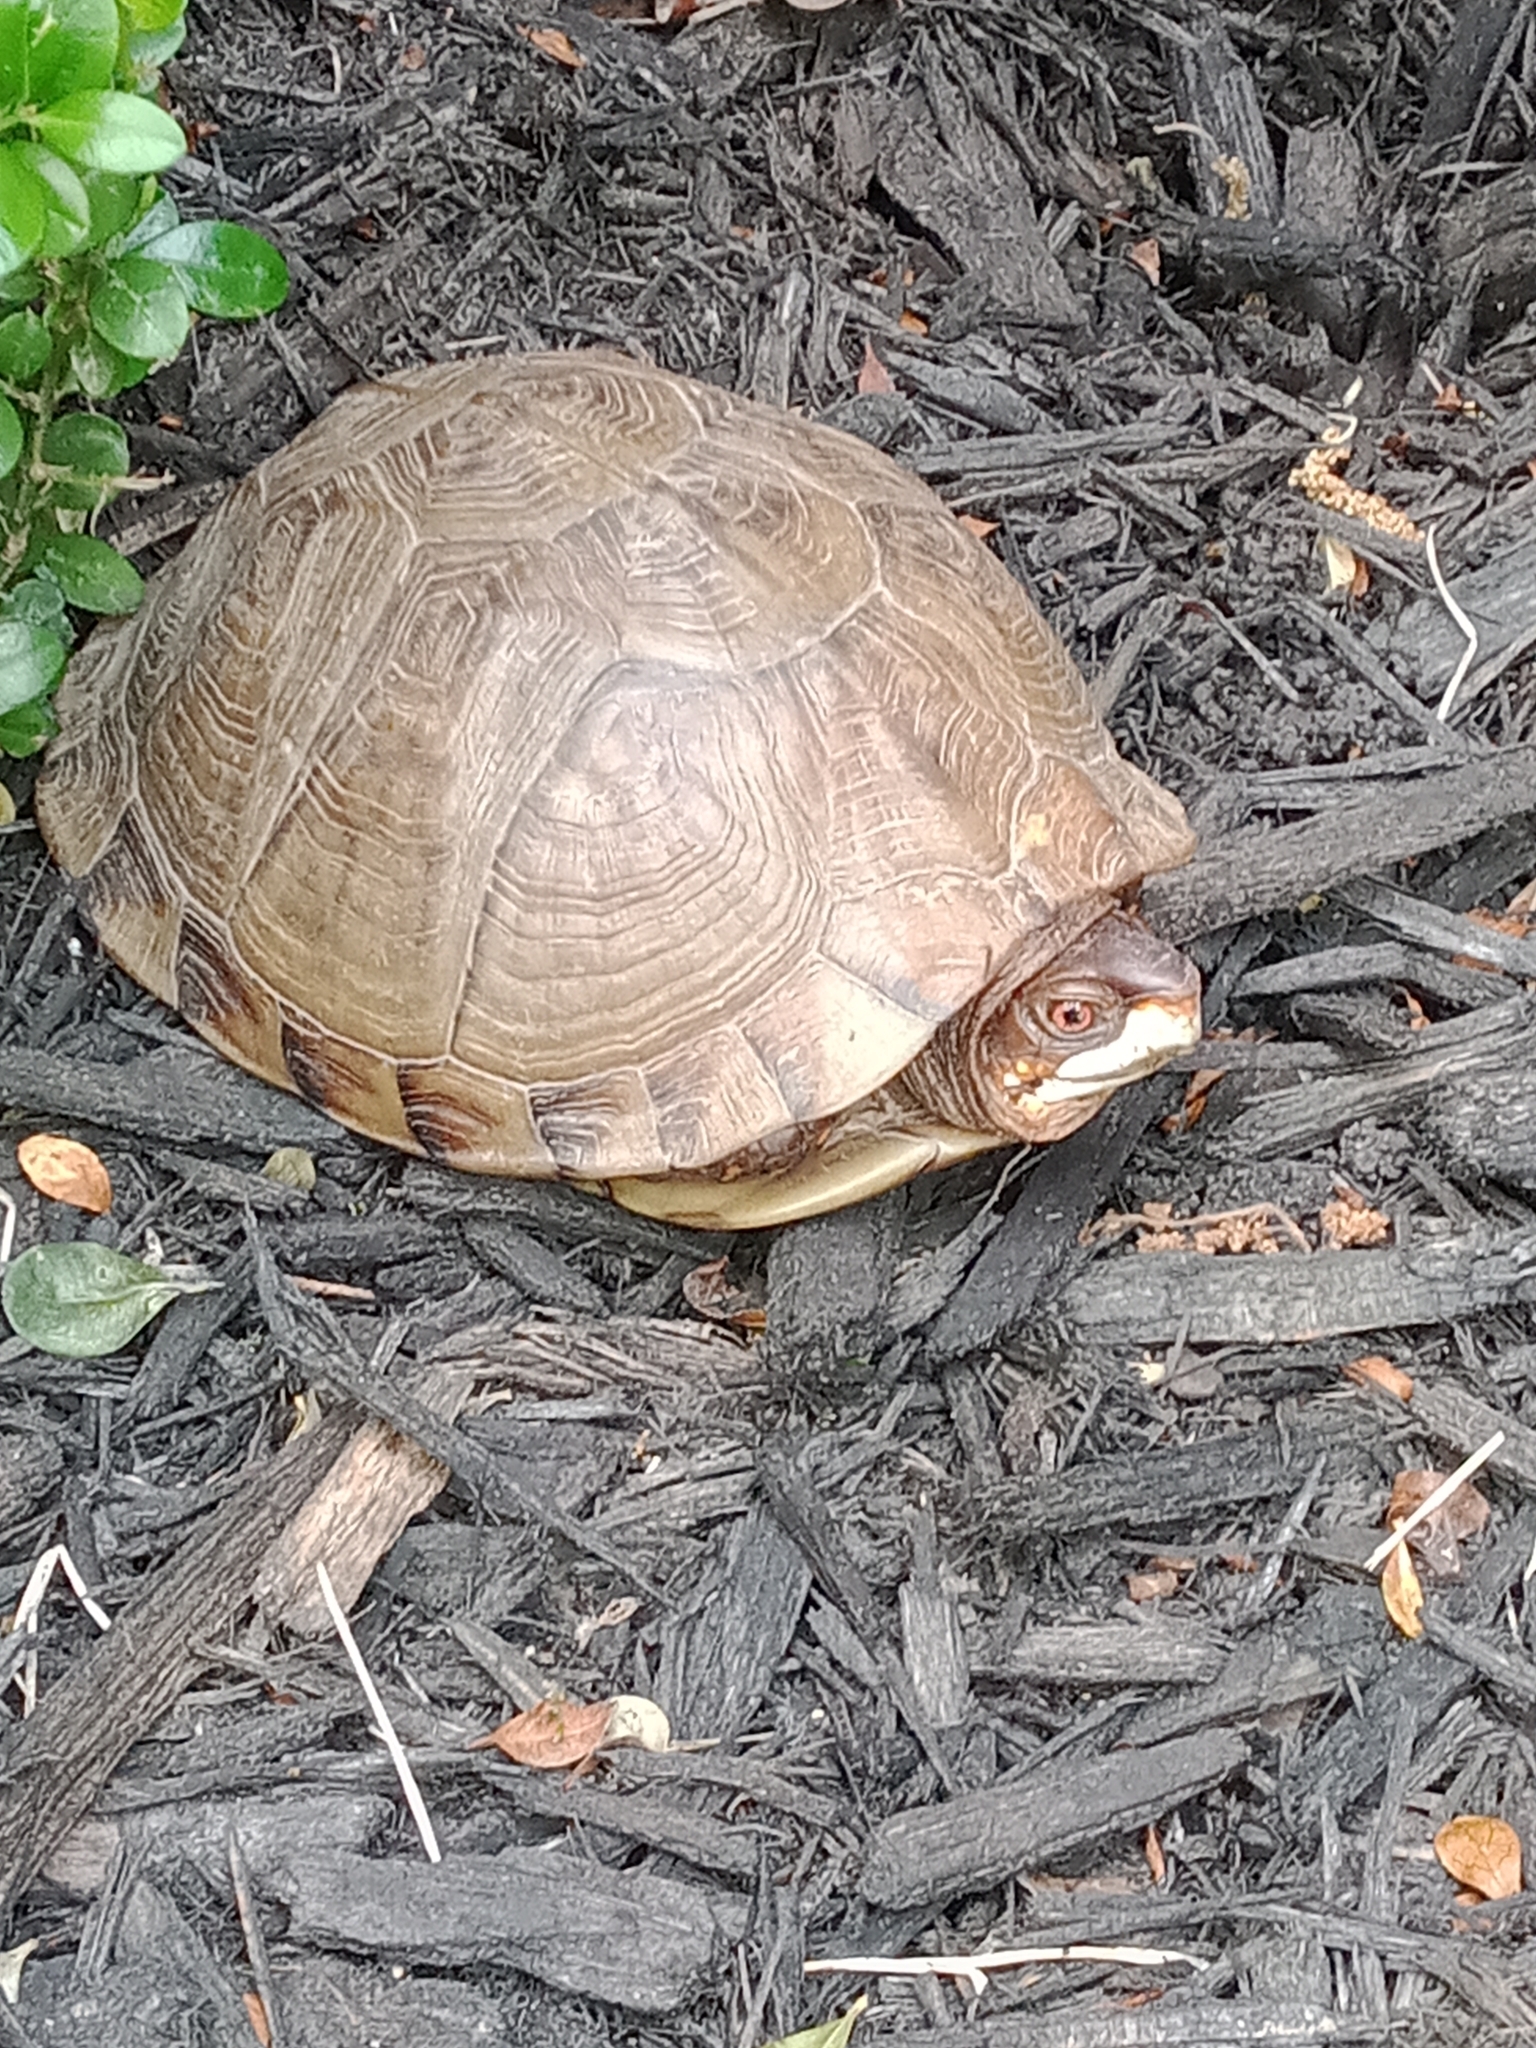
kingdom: Animalia
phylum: Chordata
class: Testudines
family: Emydidae
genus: Terrapene
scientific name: Terrapene carolina
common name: Common box turtle
